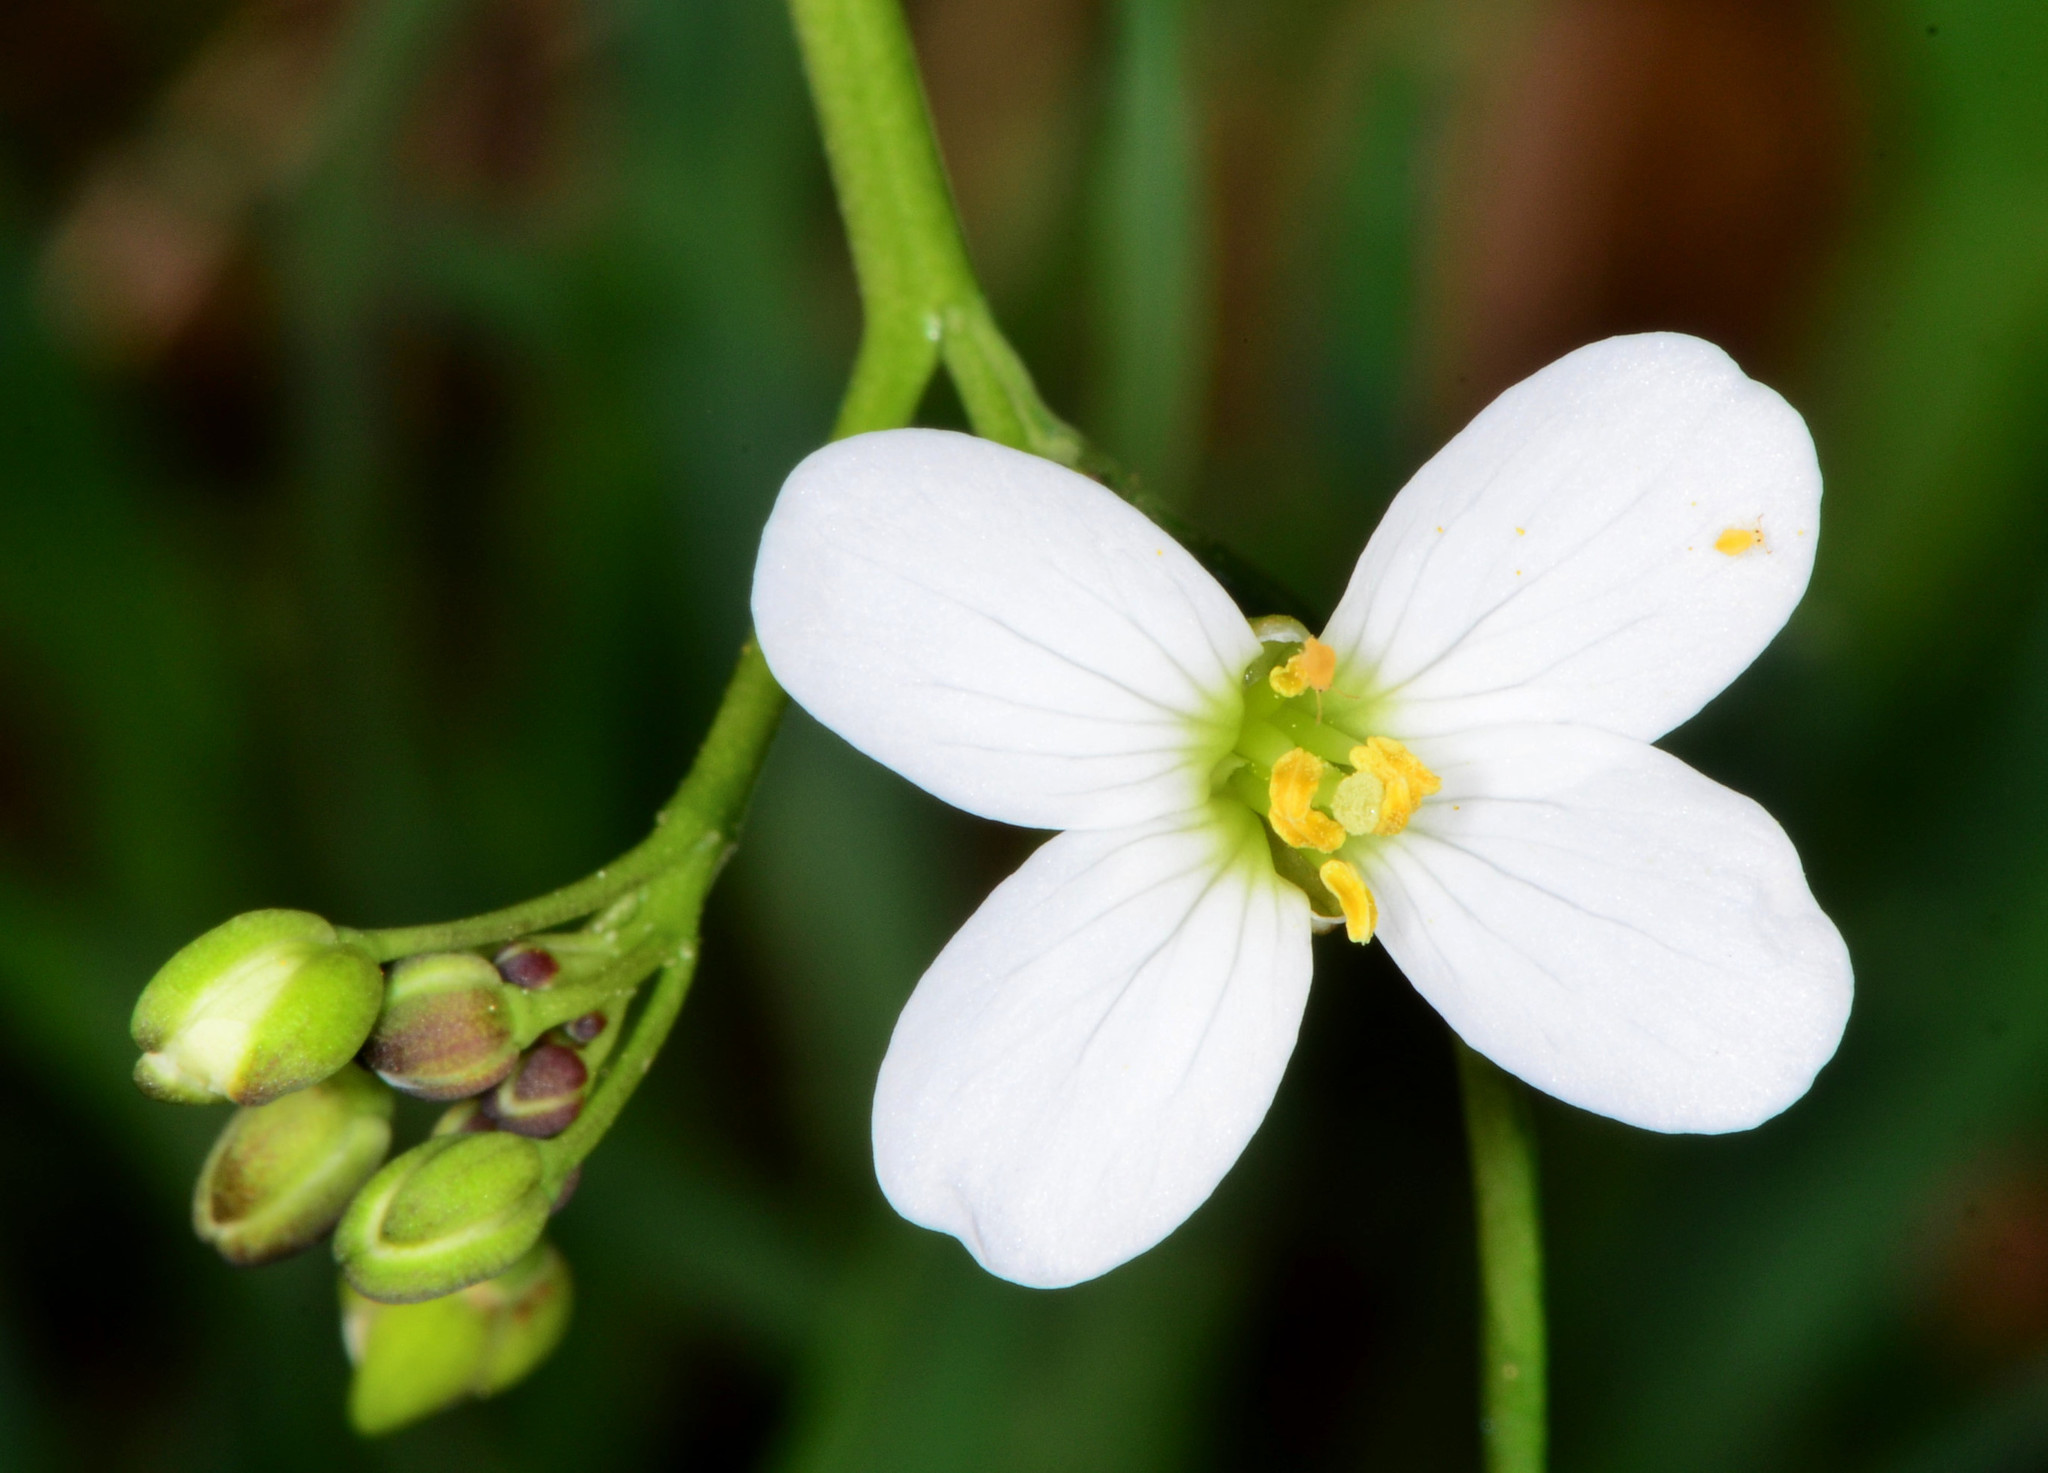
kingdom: Plantae
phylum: Tracheophyta
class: Magnoliopsida
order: Brassicales
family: Brassicaceae
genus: Cardamine
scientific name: Cardamine californica
